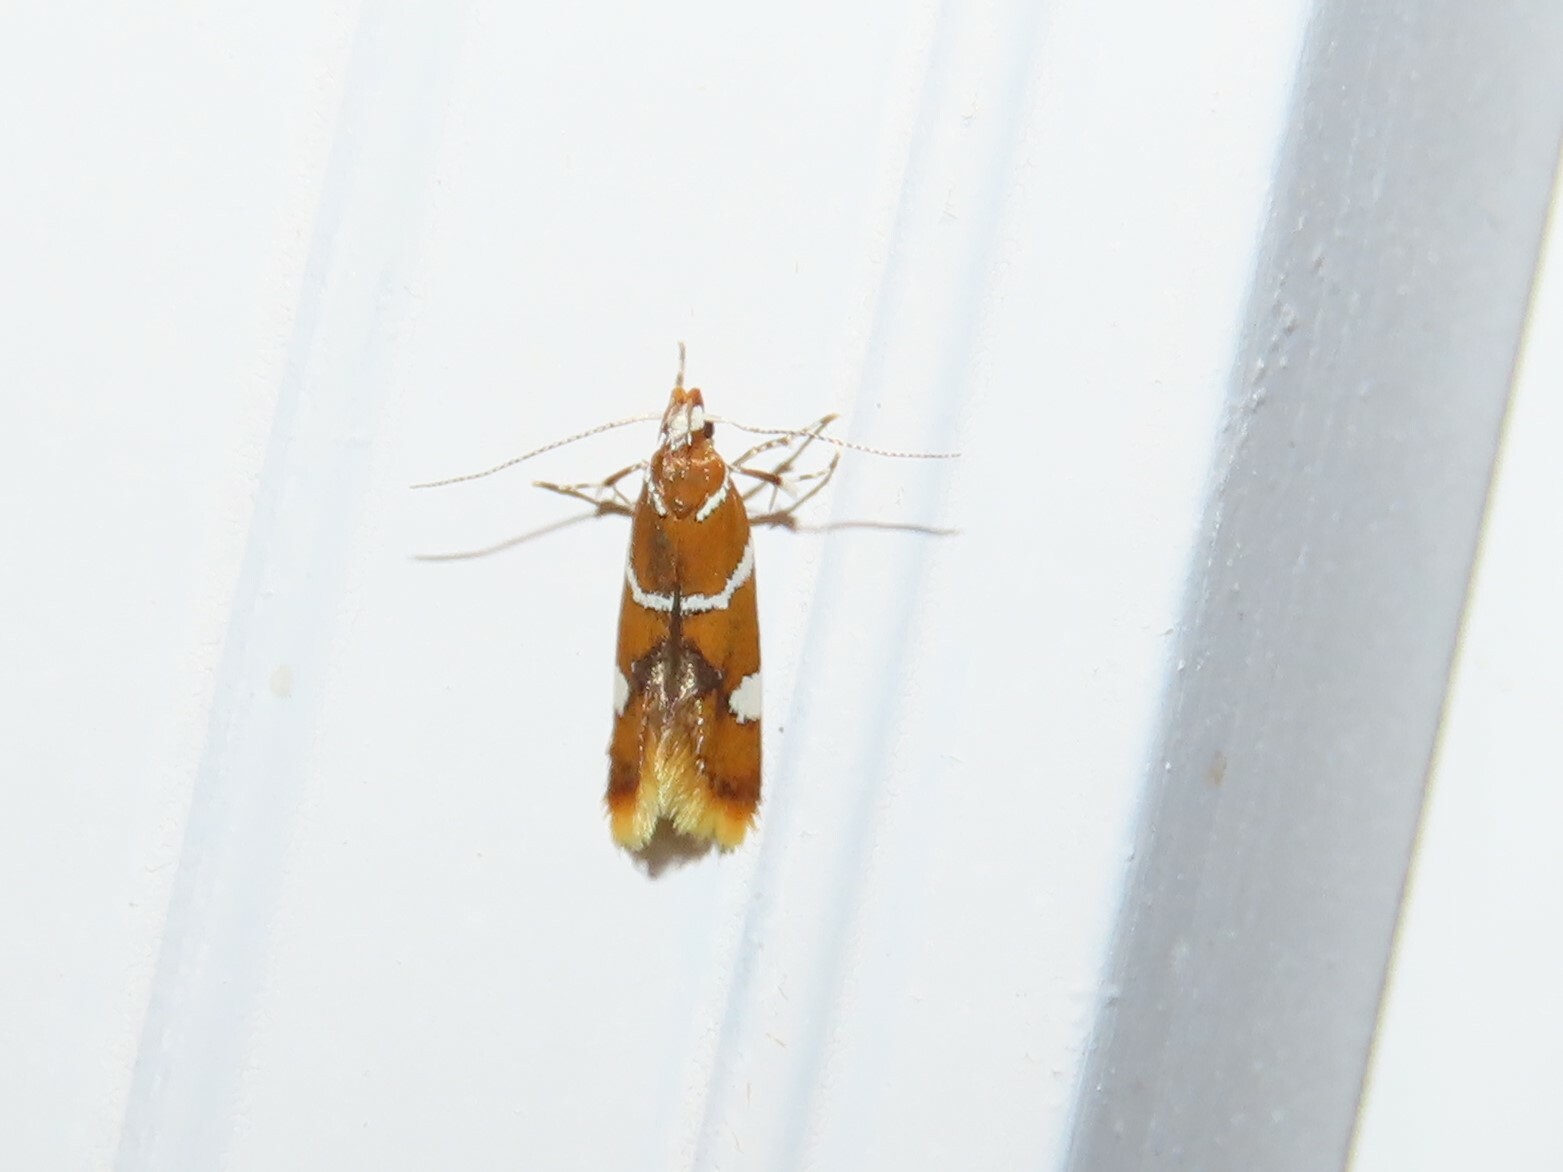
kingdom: Animalia
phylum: Arthropoda
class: Insecta
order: Lepidoptera
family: Oecophoridae
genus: Promalactis
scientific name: Promalactis suzukiella
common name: Moth
